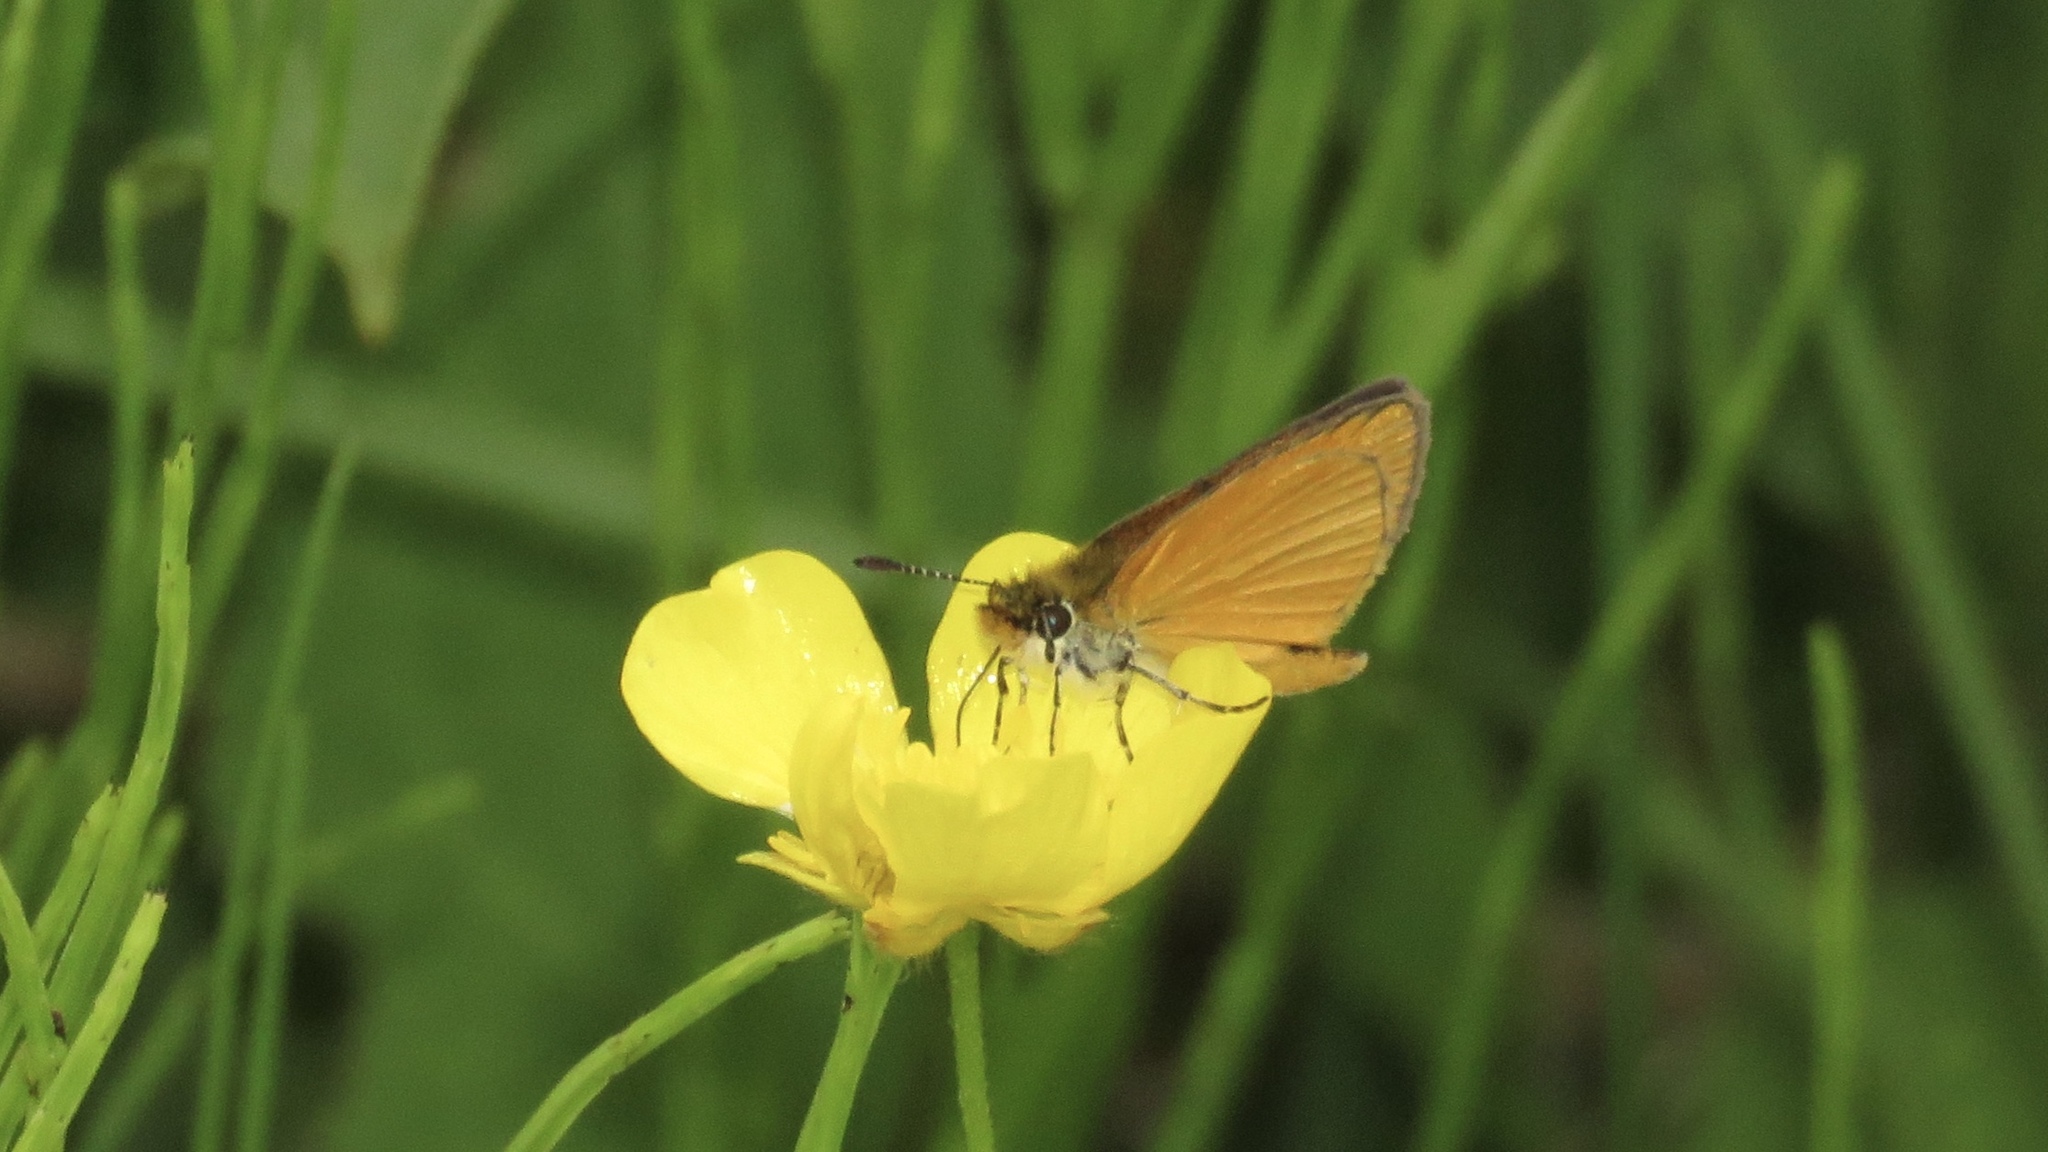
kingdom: Animalia
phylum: Arthropoda
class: Insecta
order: Lepidoptera
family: Hesperiidae
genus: Ancyloxypha
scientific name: Ancyloxypha numitor
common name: Least skipper
